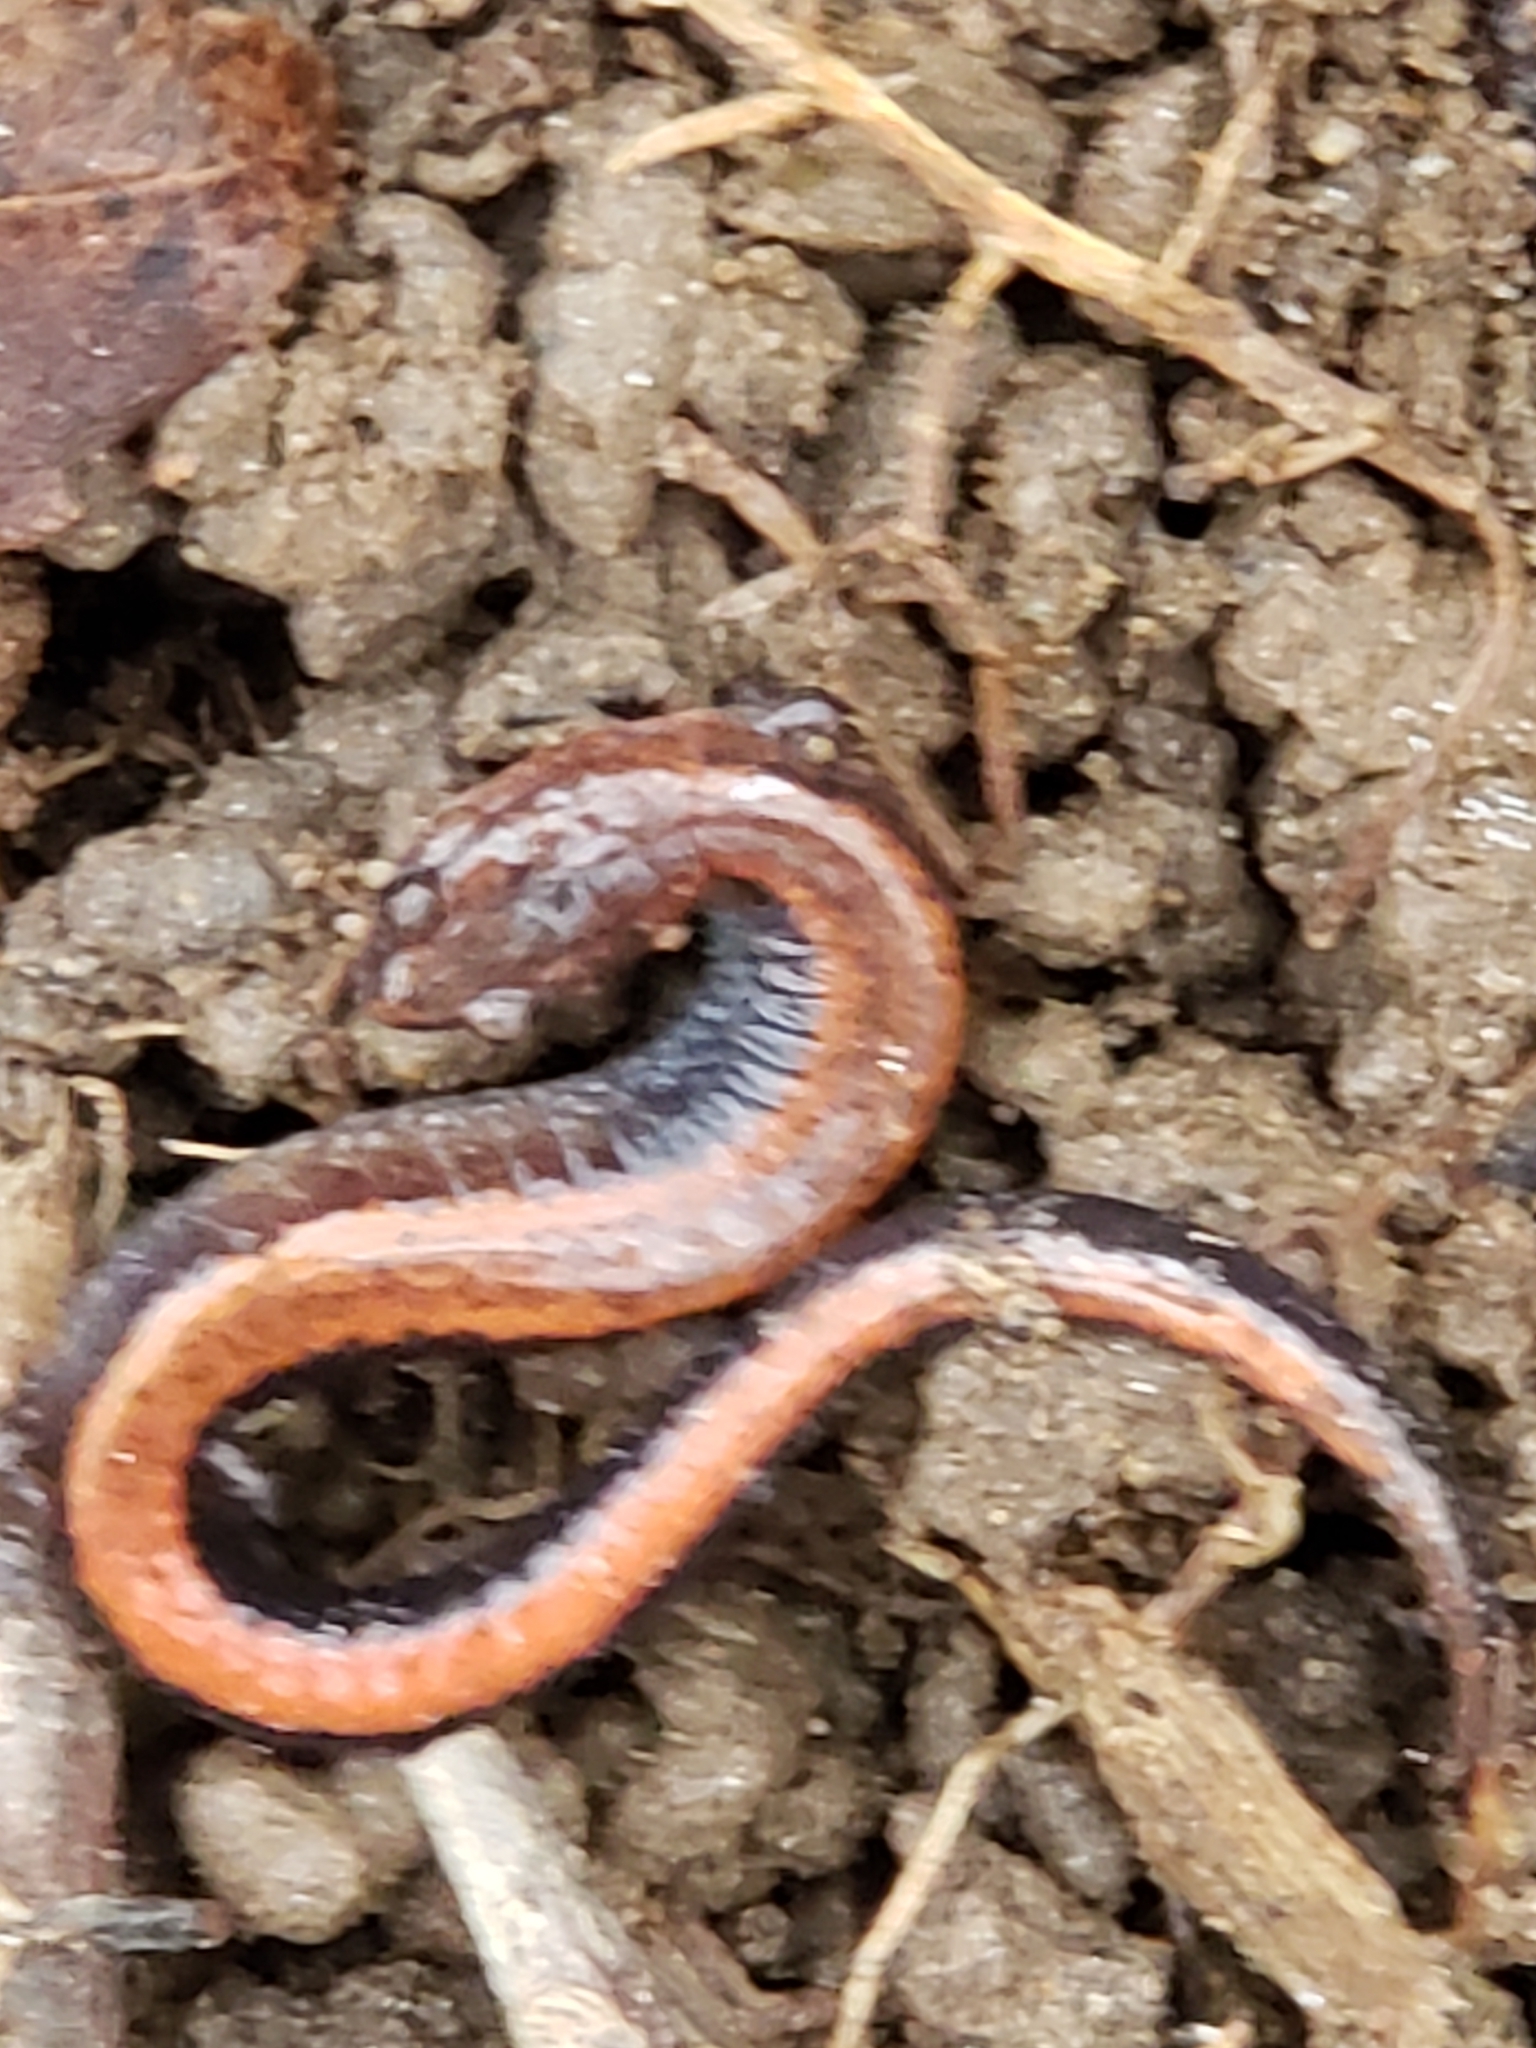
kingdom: Animalia
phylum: Chordata
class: Amphibia
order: Caudata
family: Plethodontidae
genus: Plethodon
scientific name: Plethodon cinereus
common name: Redback salamander
